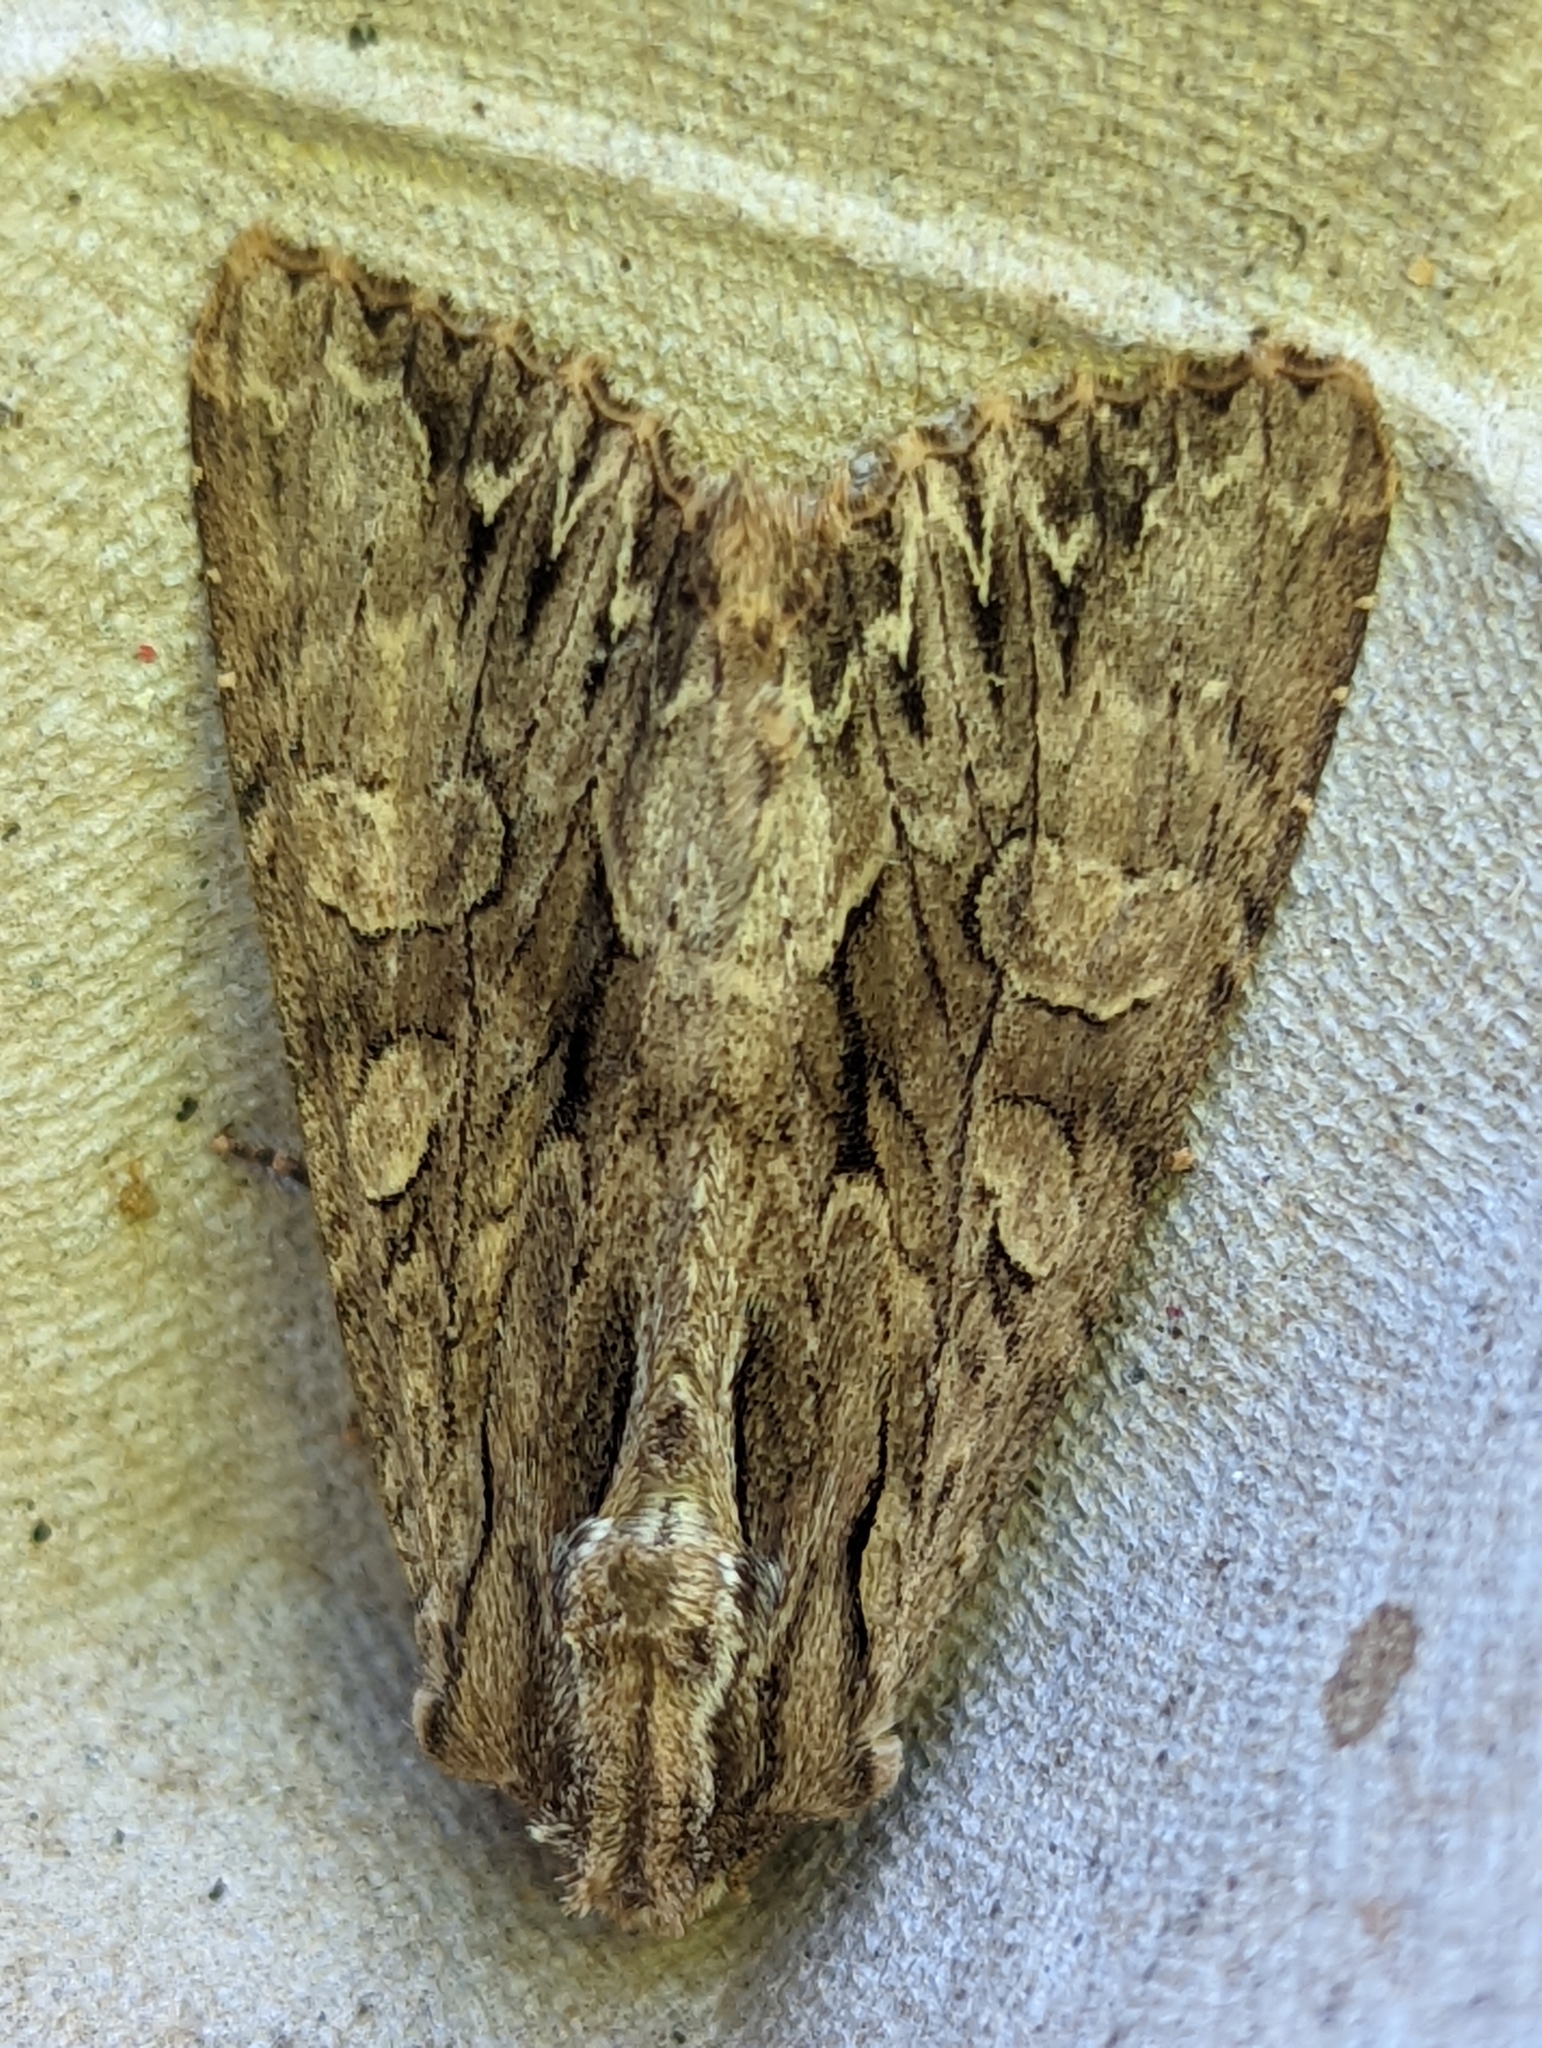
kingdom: Animalia
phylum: Arthropoda
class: Insecta
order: Lepidoptera
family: Noctuidae
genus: Apamea
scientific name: Apamea monoglypha
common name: Dark arches
